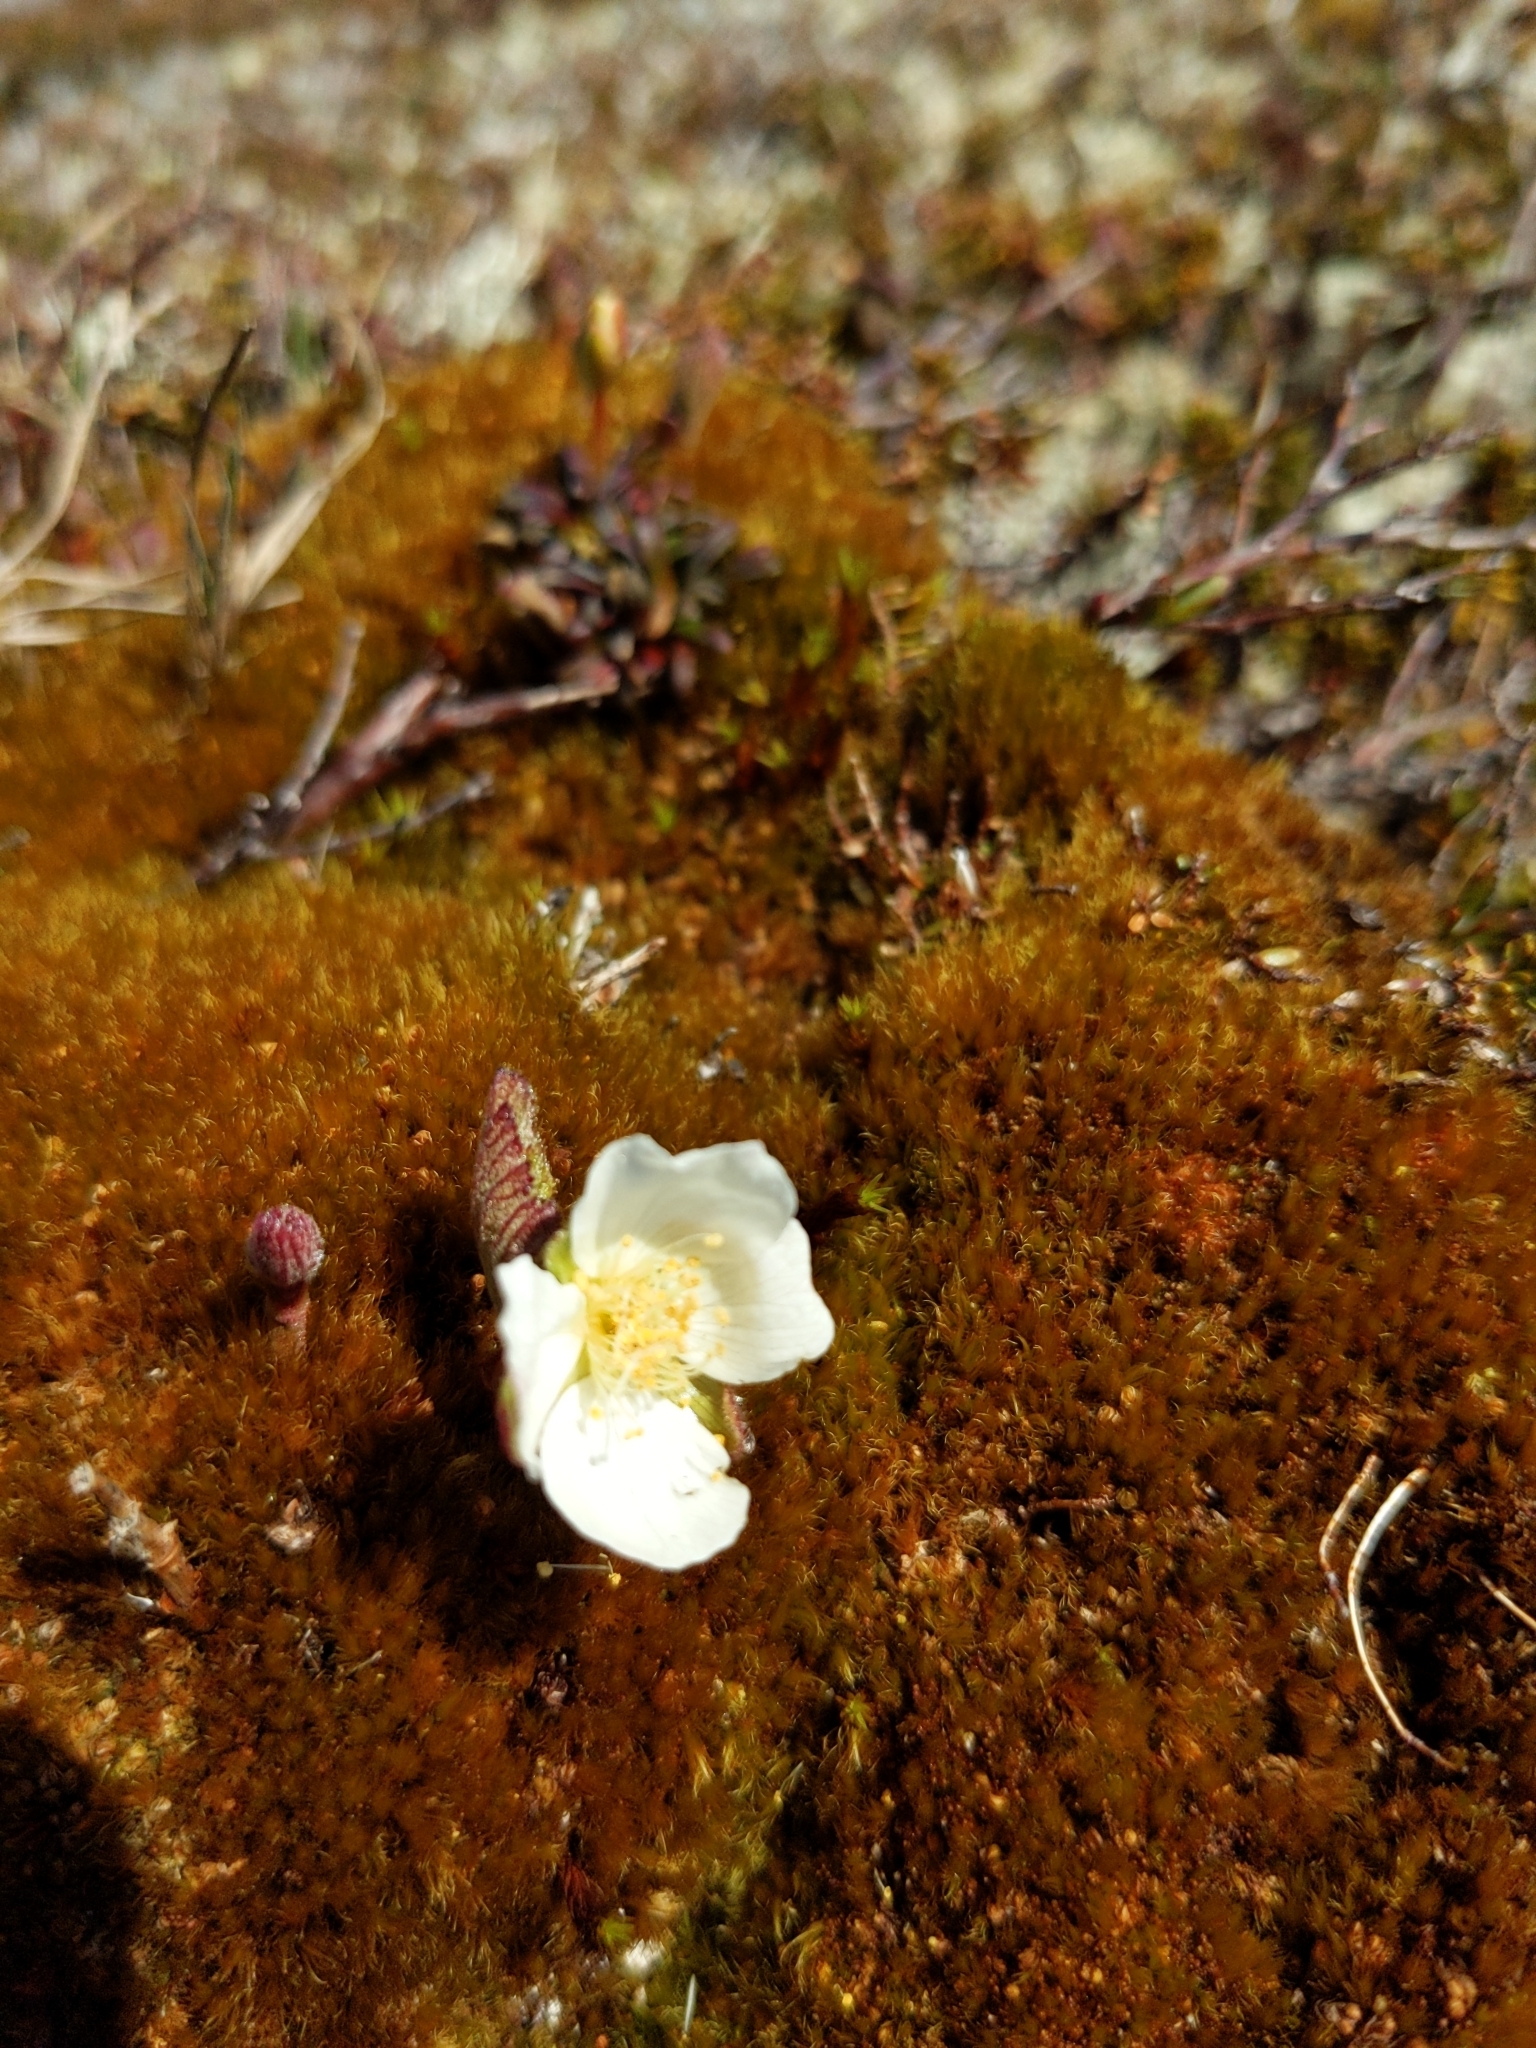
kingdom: Plantae
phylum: Tracheophyta
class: Magnoliopsida
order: Rosales
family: Rosaceae
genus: Rubus
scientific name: Rubus chamaemorus
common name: Cloudberry
